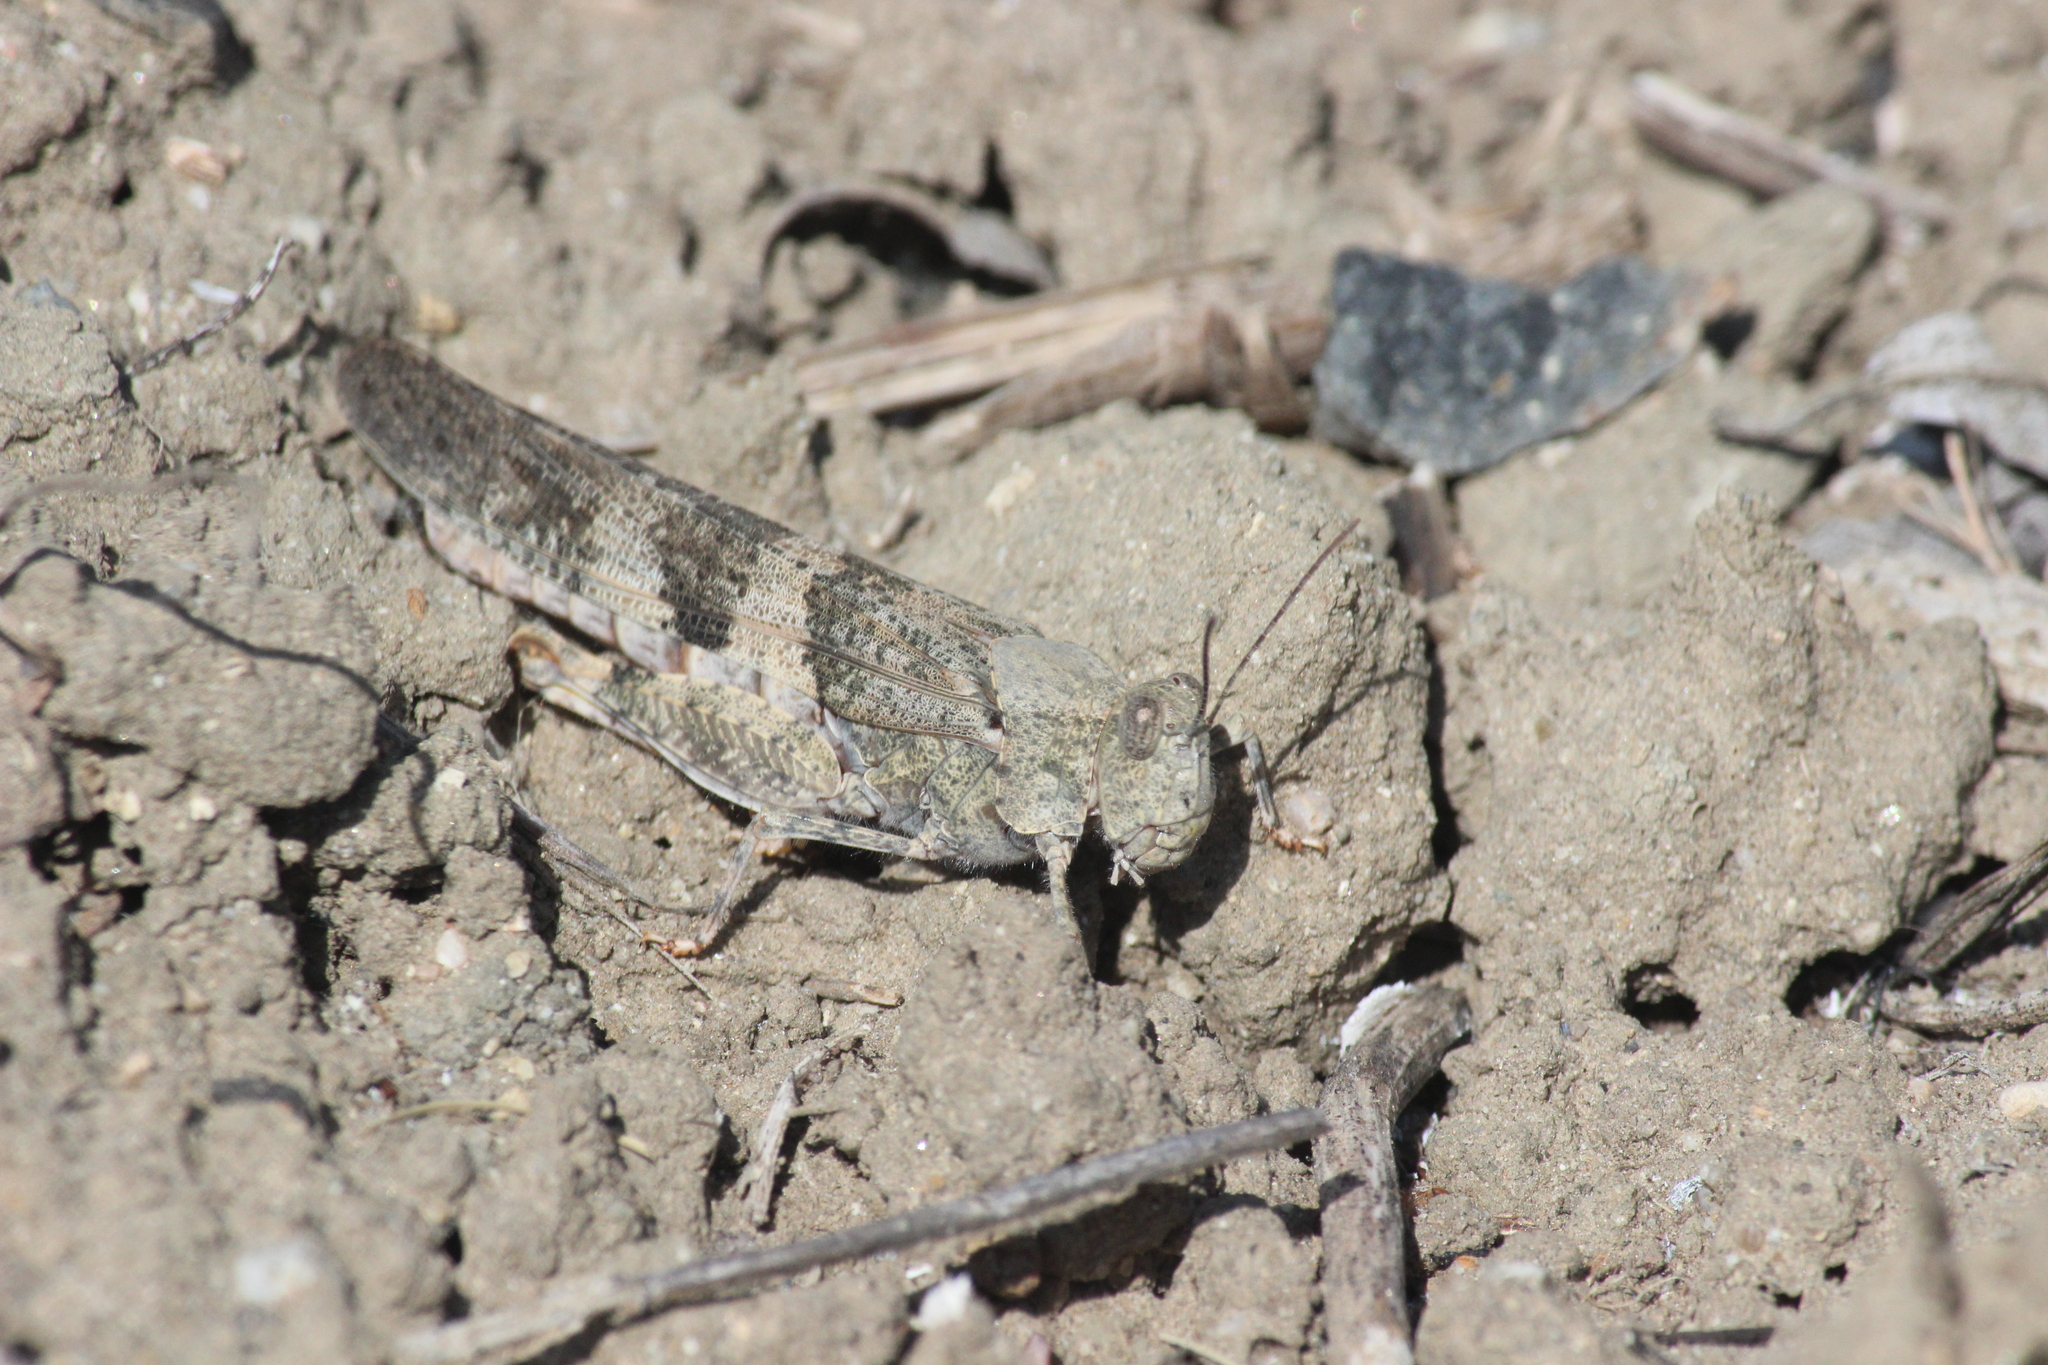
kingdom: Animalia
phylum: Arthropoda
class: Insecta
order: Orthoptera
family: Acrididae
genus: Trimerotropis
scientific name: Trimerotropis pallidipennis
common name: Pallid-winged grasshopper
